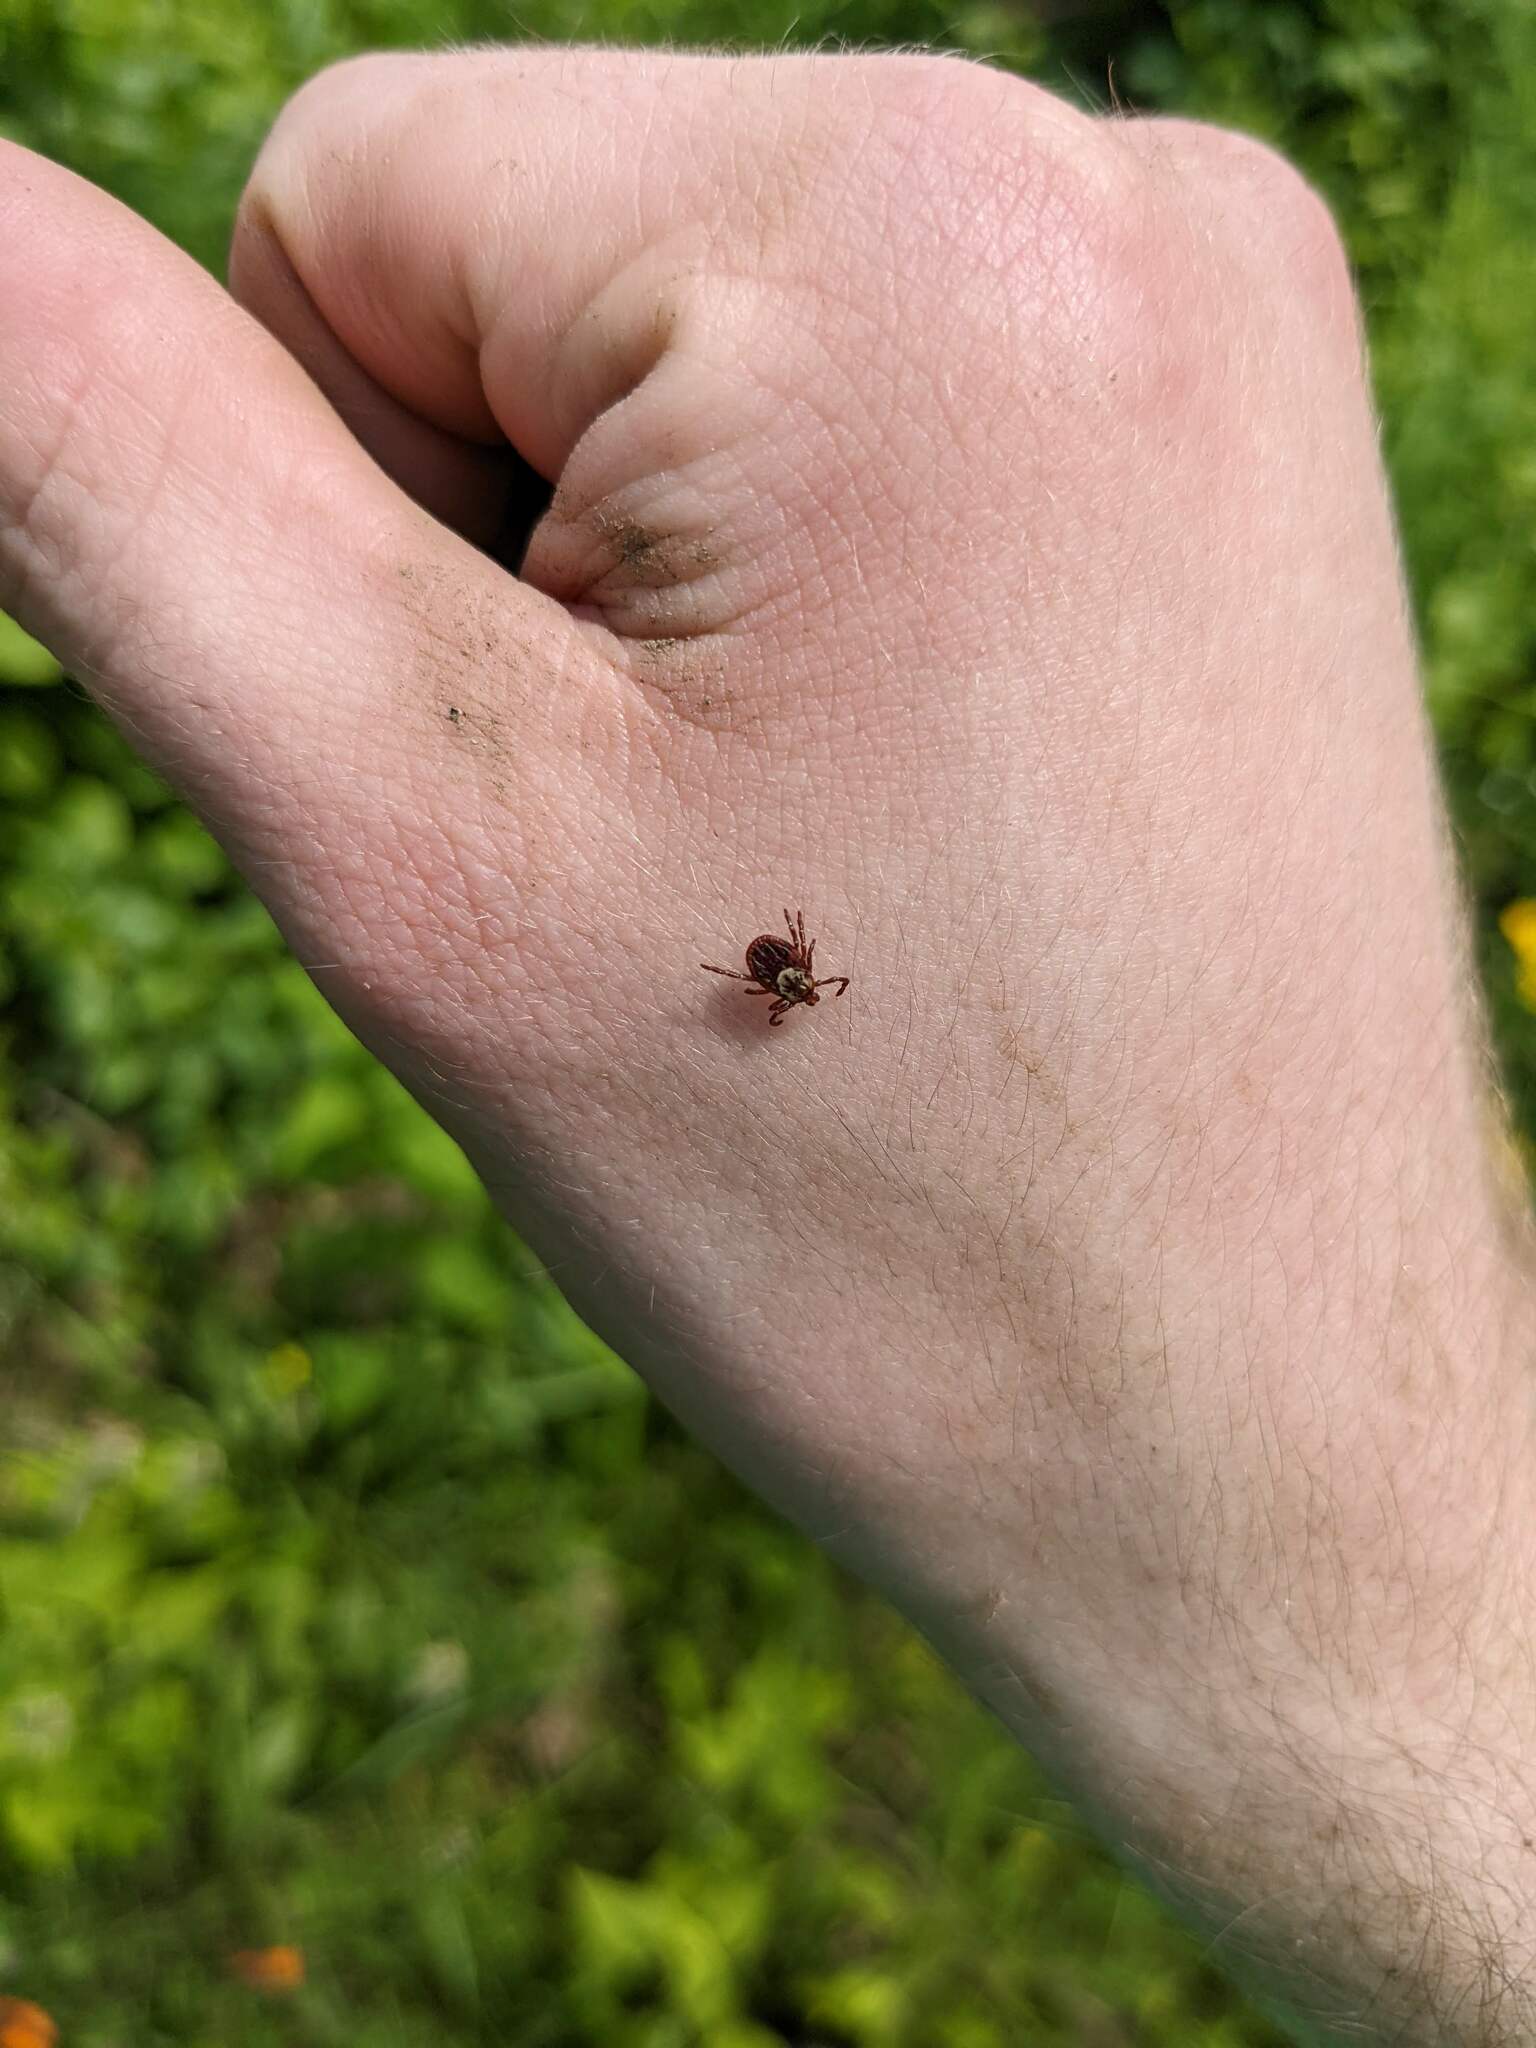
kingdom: Animalia
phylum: Arthropoda
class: Arachnida
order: Ixodida
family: Ixodidae
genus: Dermacentor
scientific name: Dermacentor variabilis
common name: American dog tick
